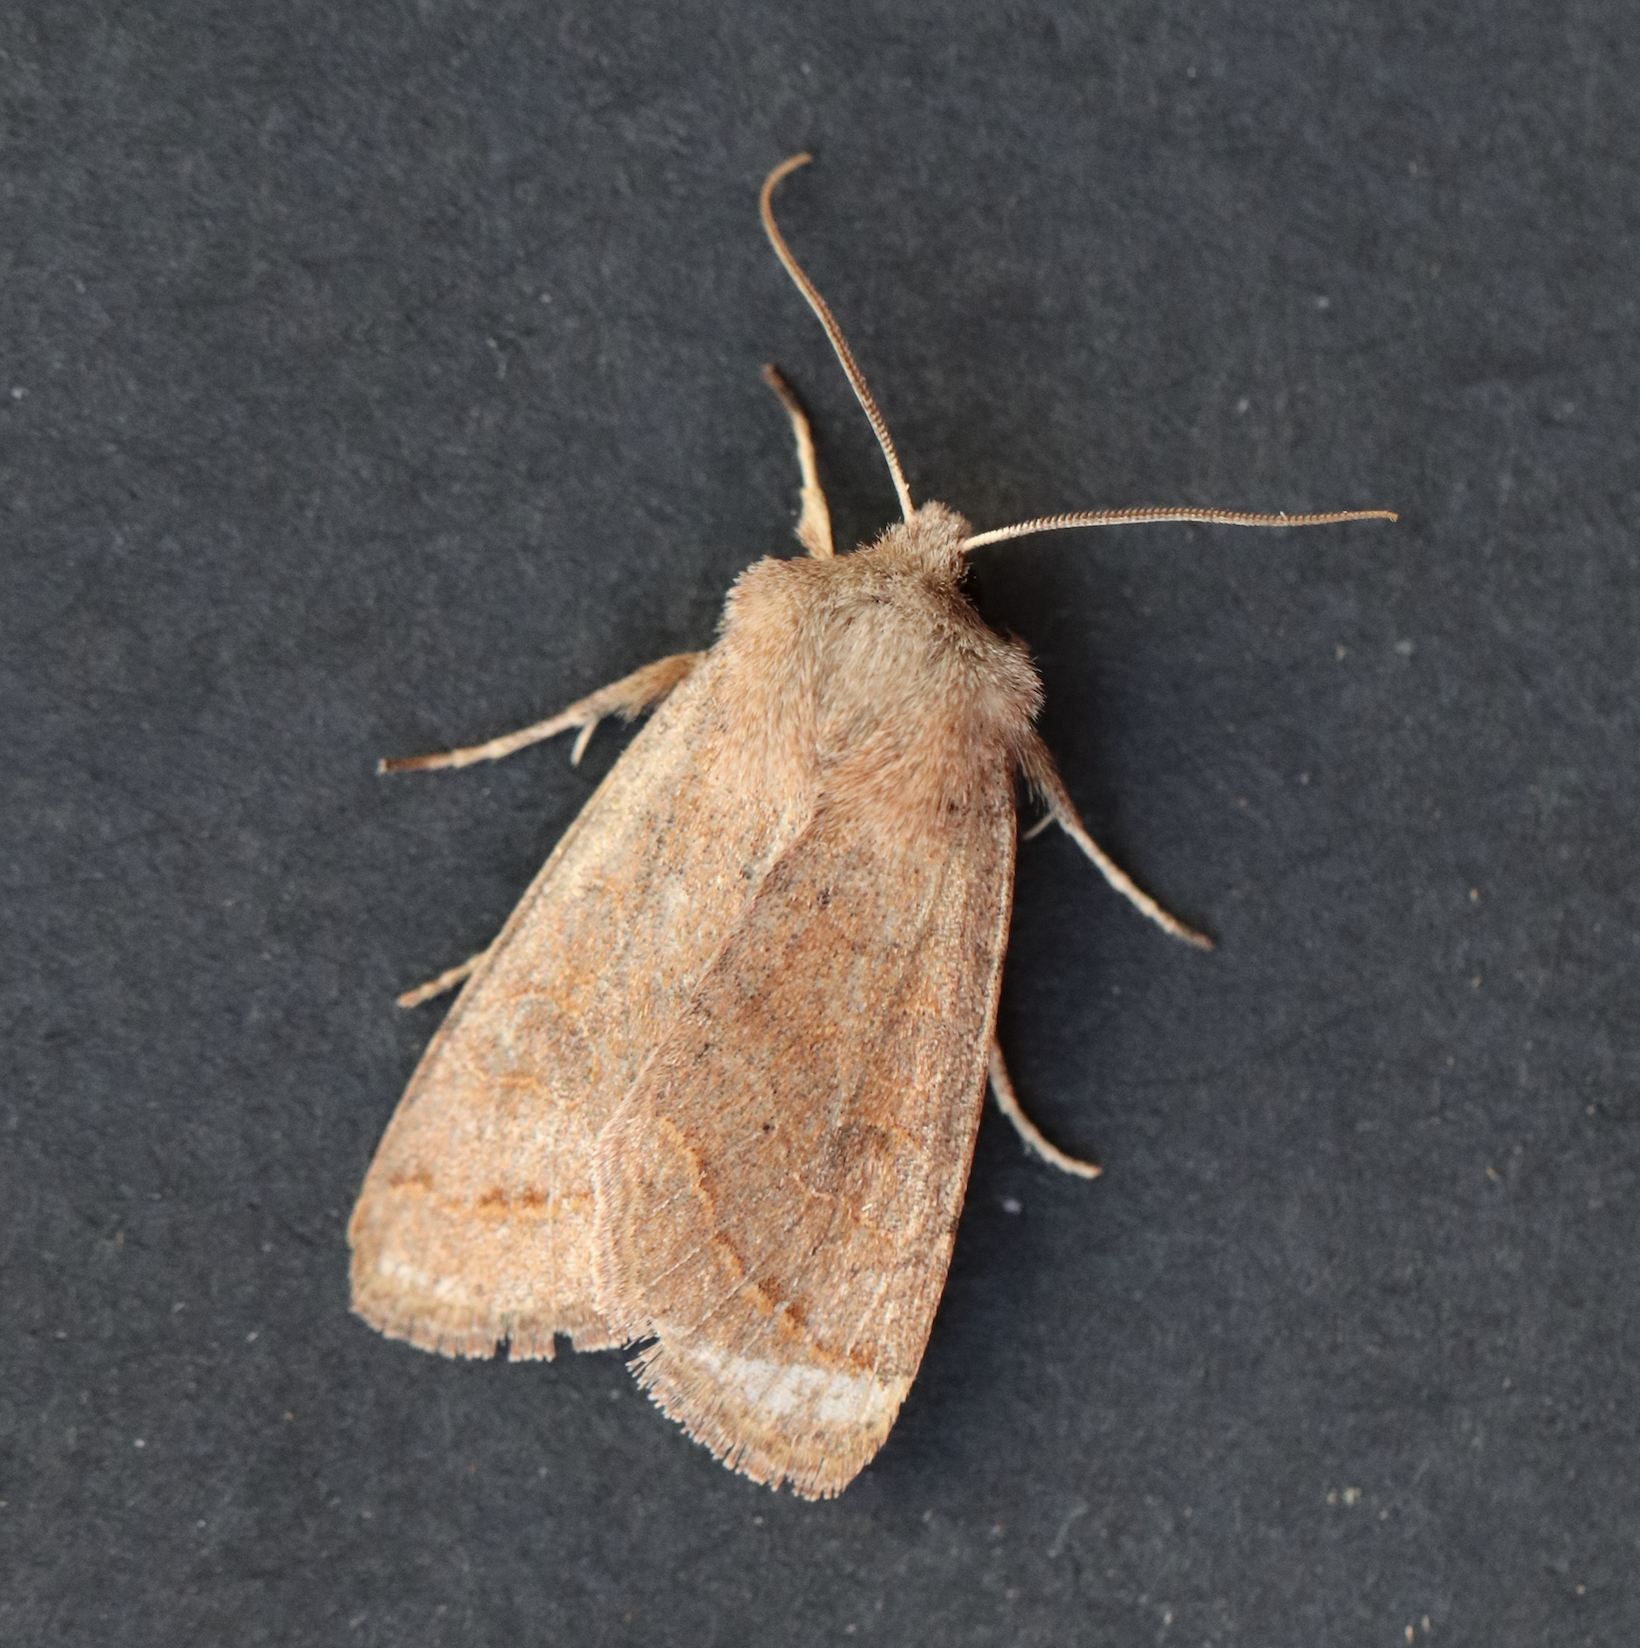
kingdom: Animalia
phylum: Arthropoda
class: Insecta
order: Lepidoptera
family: Noctuidae
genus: Orthosia
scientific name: Orthosia cerasi
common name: Common quaker
